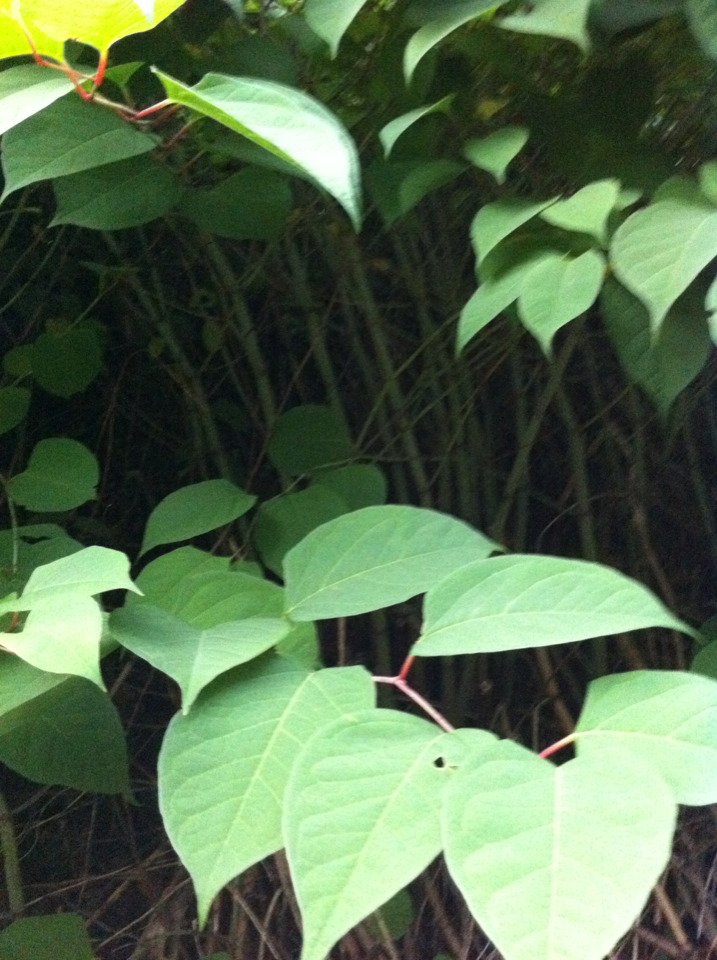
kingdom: Plantae
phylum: Tracheophyta
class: Magnoliopsida
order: Caryophyllales
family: Polygonaceae
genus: Reynoutria
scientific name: Reynoutria japonica
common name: Japanese knotweed
